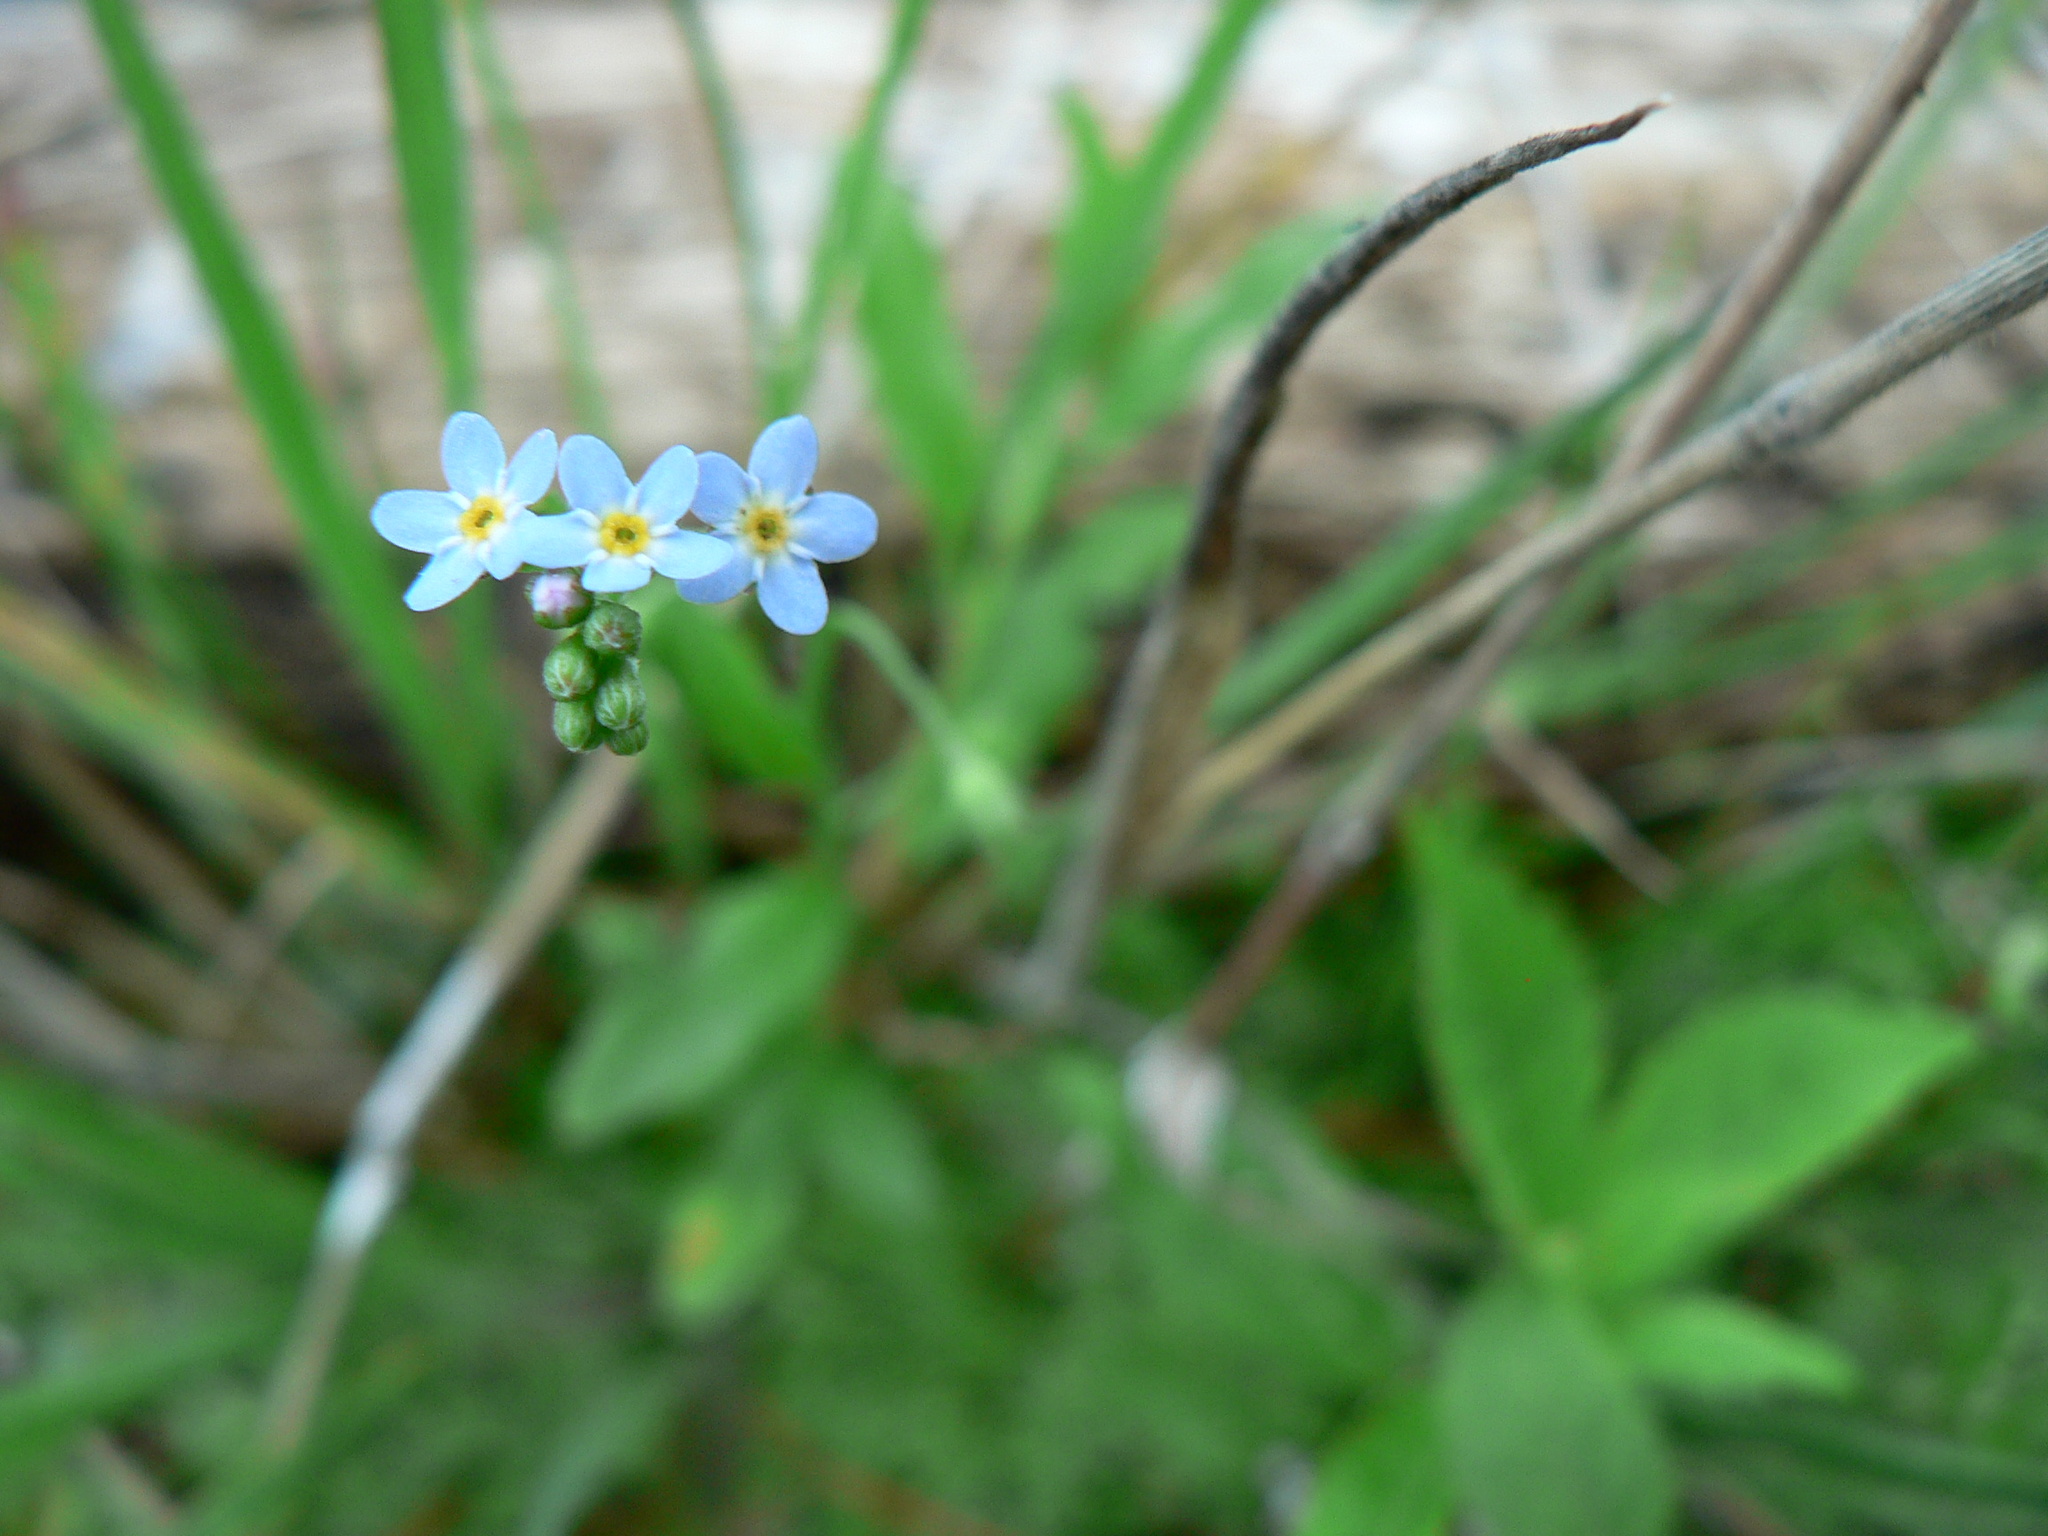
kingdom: Plantae
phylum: Tracheophyta
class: Magnoliopsida
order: Boraginales
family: Boraginaceae
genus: Myosotis
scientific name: Myosotis scorpioides
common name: Water forget-me-not
